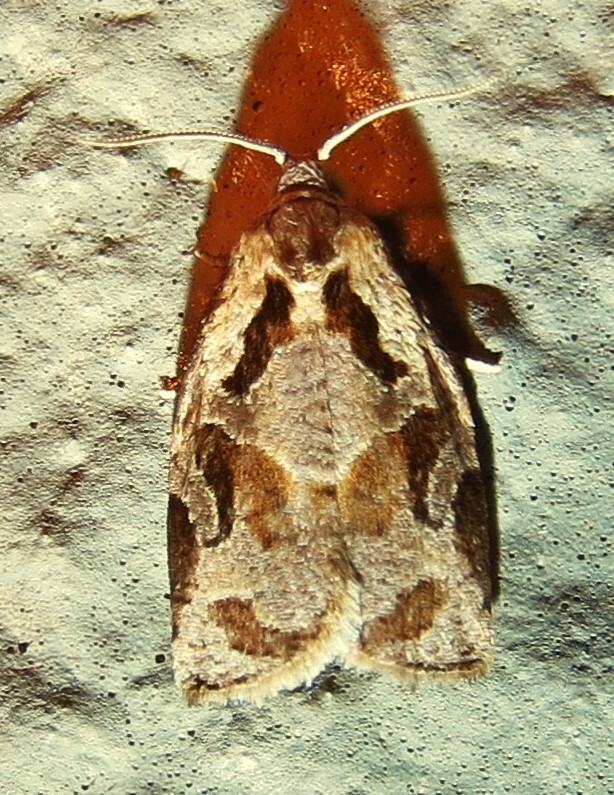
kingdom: Animalia
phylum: Arthropoda
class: Insecta
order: Lepidoptera
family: Tortricidae
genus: Archips
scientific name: Archips grisea
